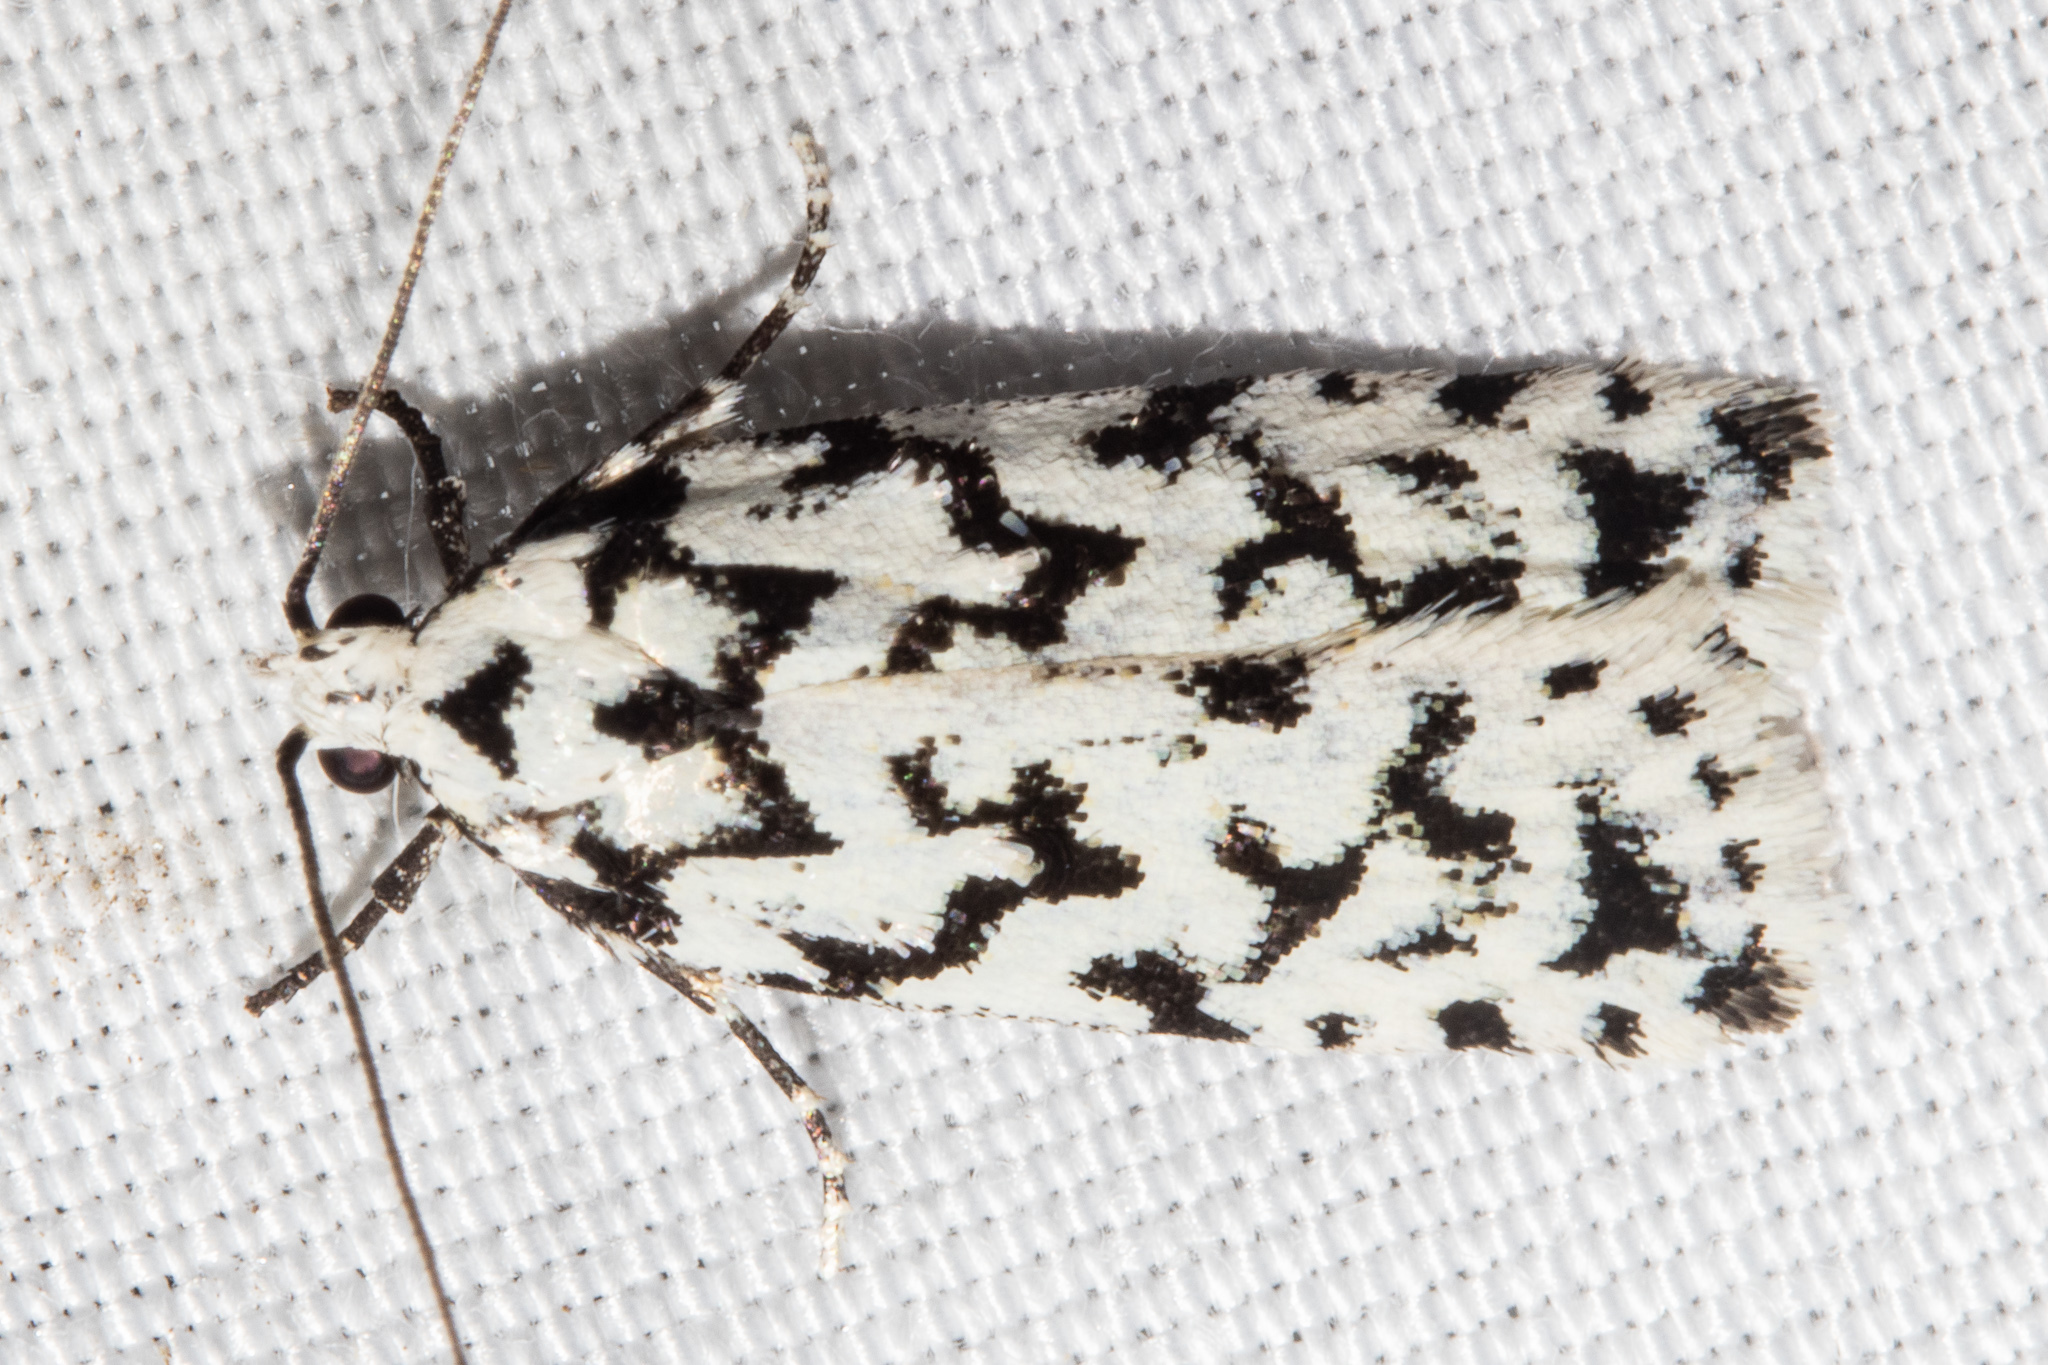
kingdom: Animalia
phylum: Arthropoda
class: Insecta
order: Lepidoptera
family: Oecophoridae
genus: Izatha
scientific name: Izatha katadiktya
